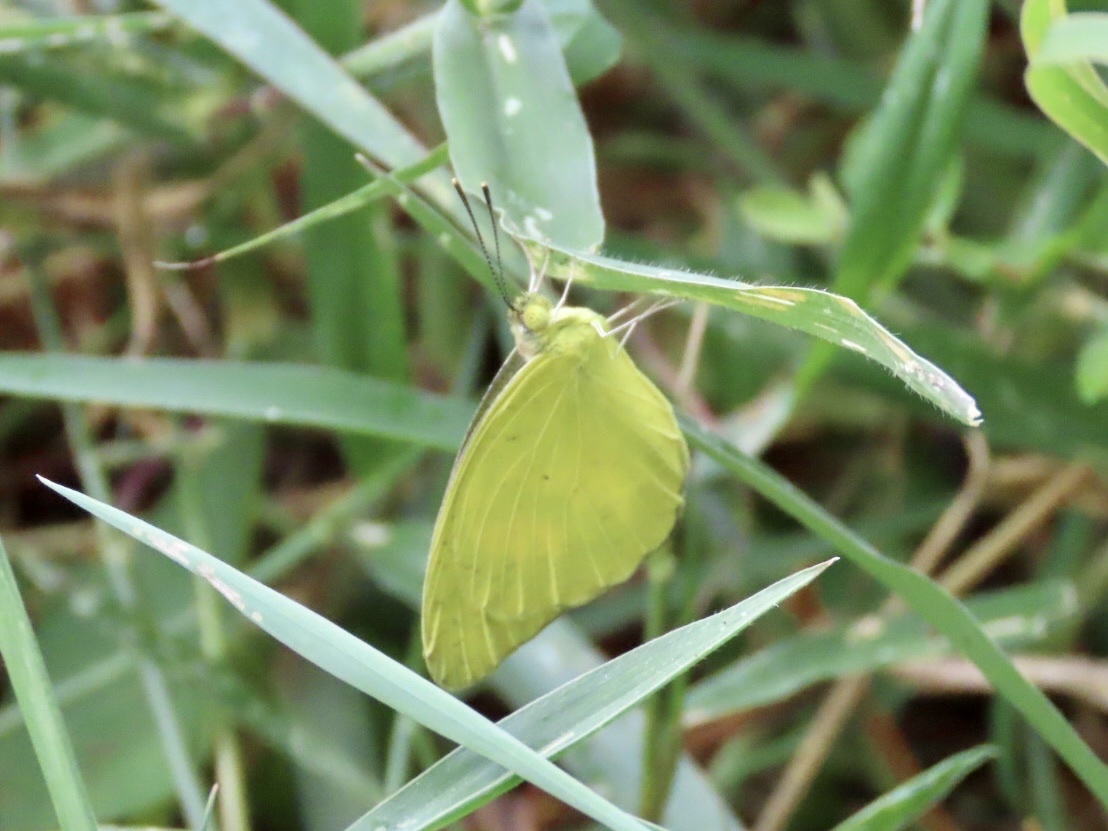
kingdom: Animalia
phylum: Arthropoda
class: Insecta
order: Lepidoptera
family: Pieridae
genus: Ixias
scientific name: Ixias pyrene
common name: Yellow orange tip
